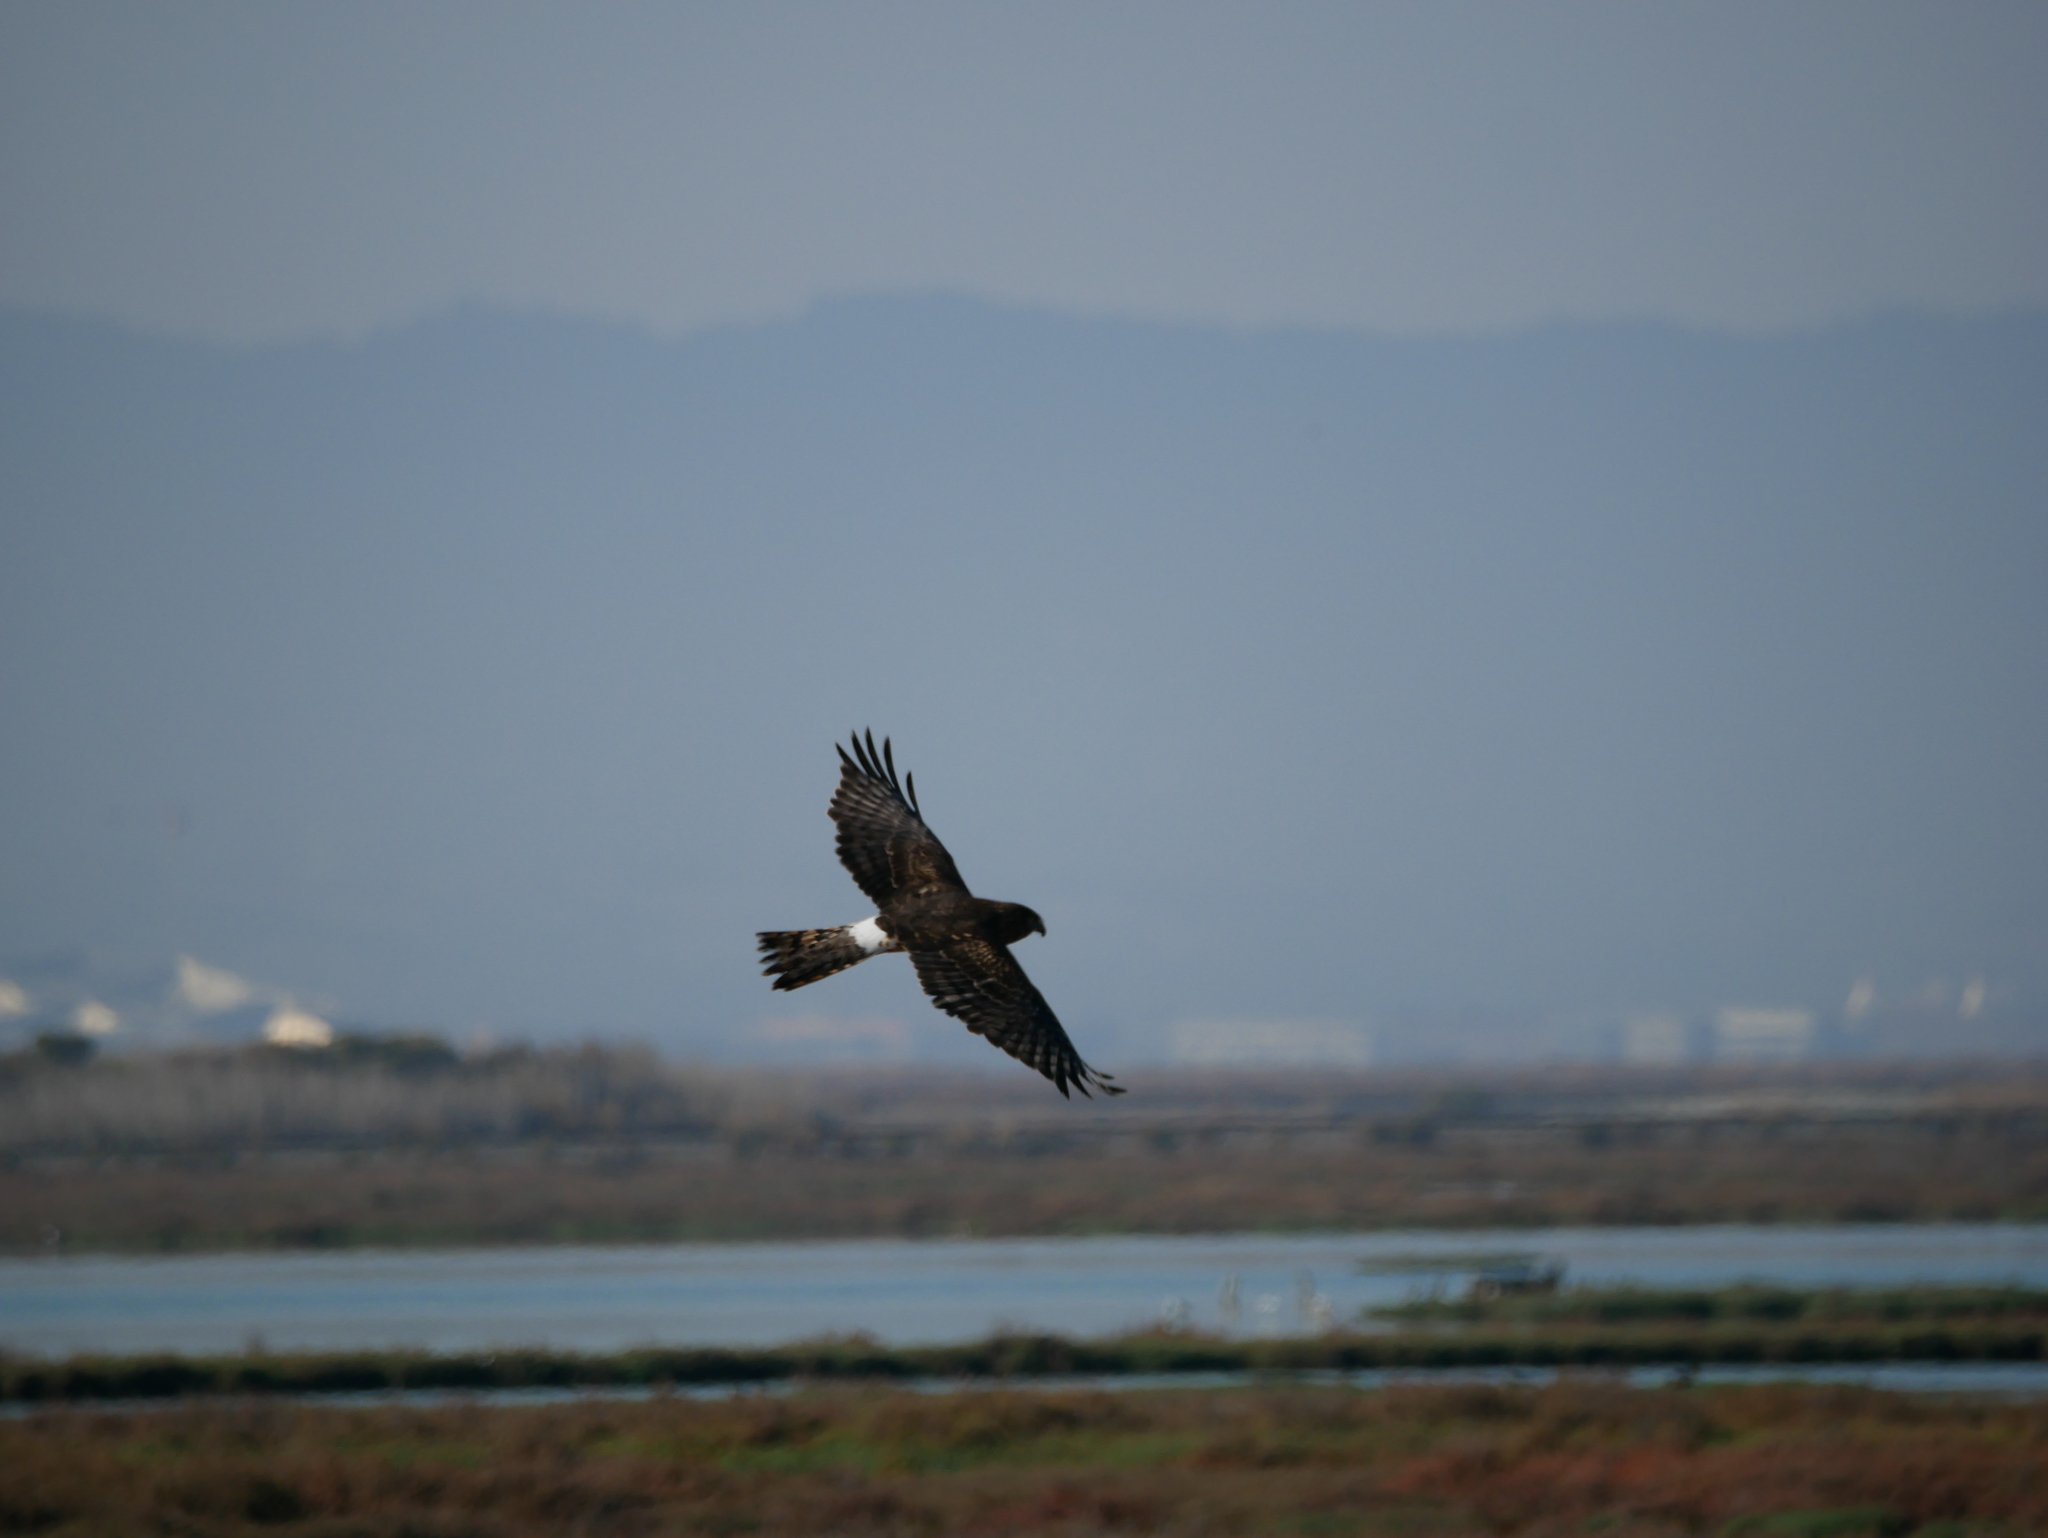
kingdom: Animalia
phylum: Chordata
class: Aves
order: Accipitriformes
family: Accipitridae
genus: Circus
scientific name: Circus cyaneus
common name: Hen harrier
